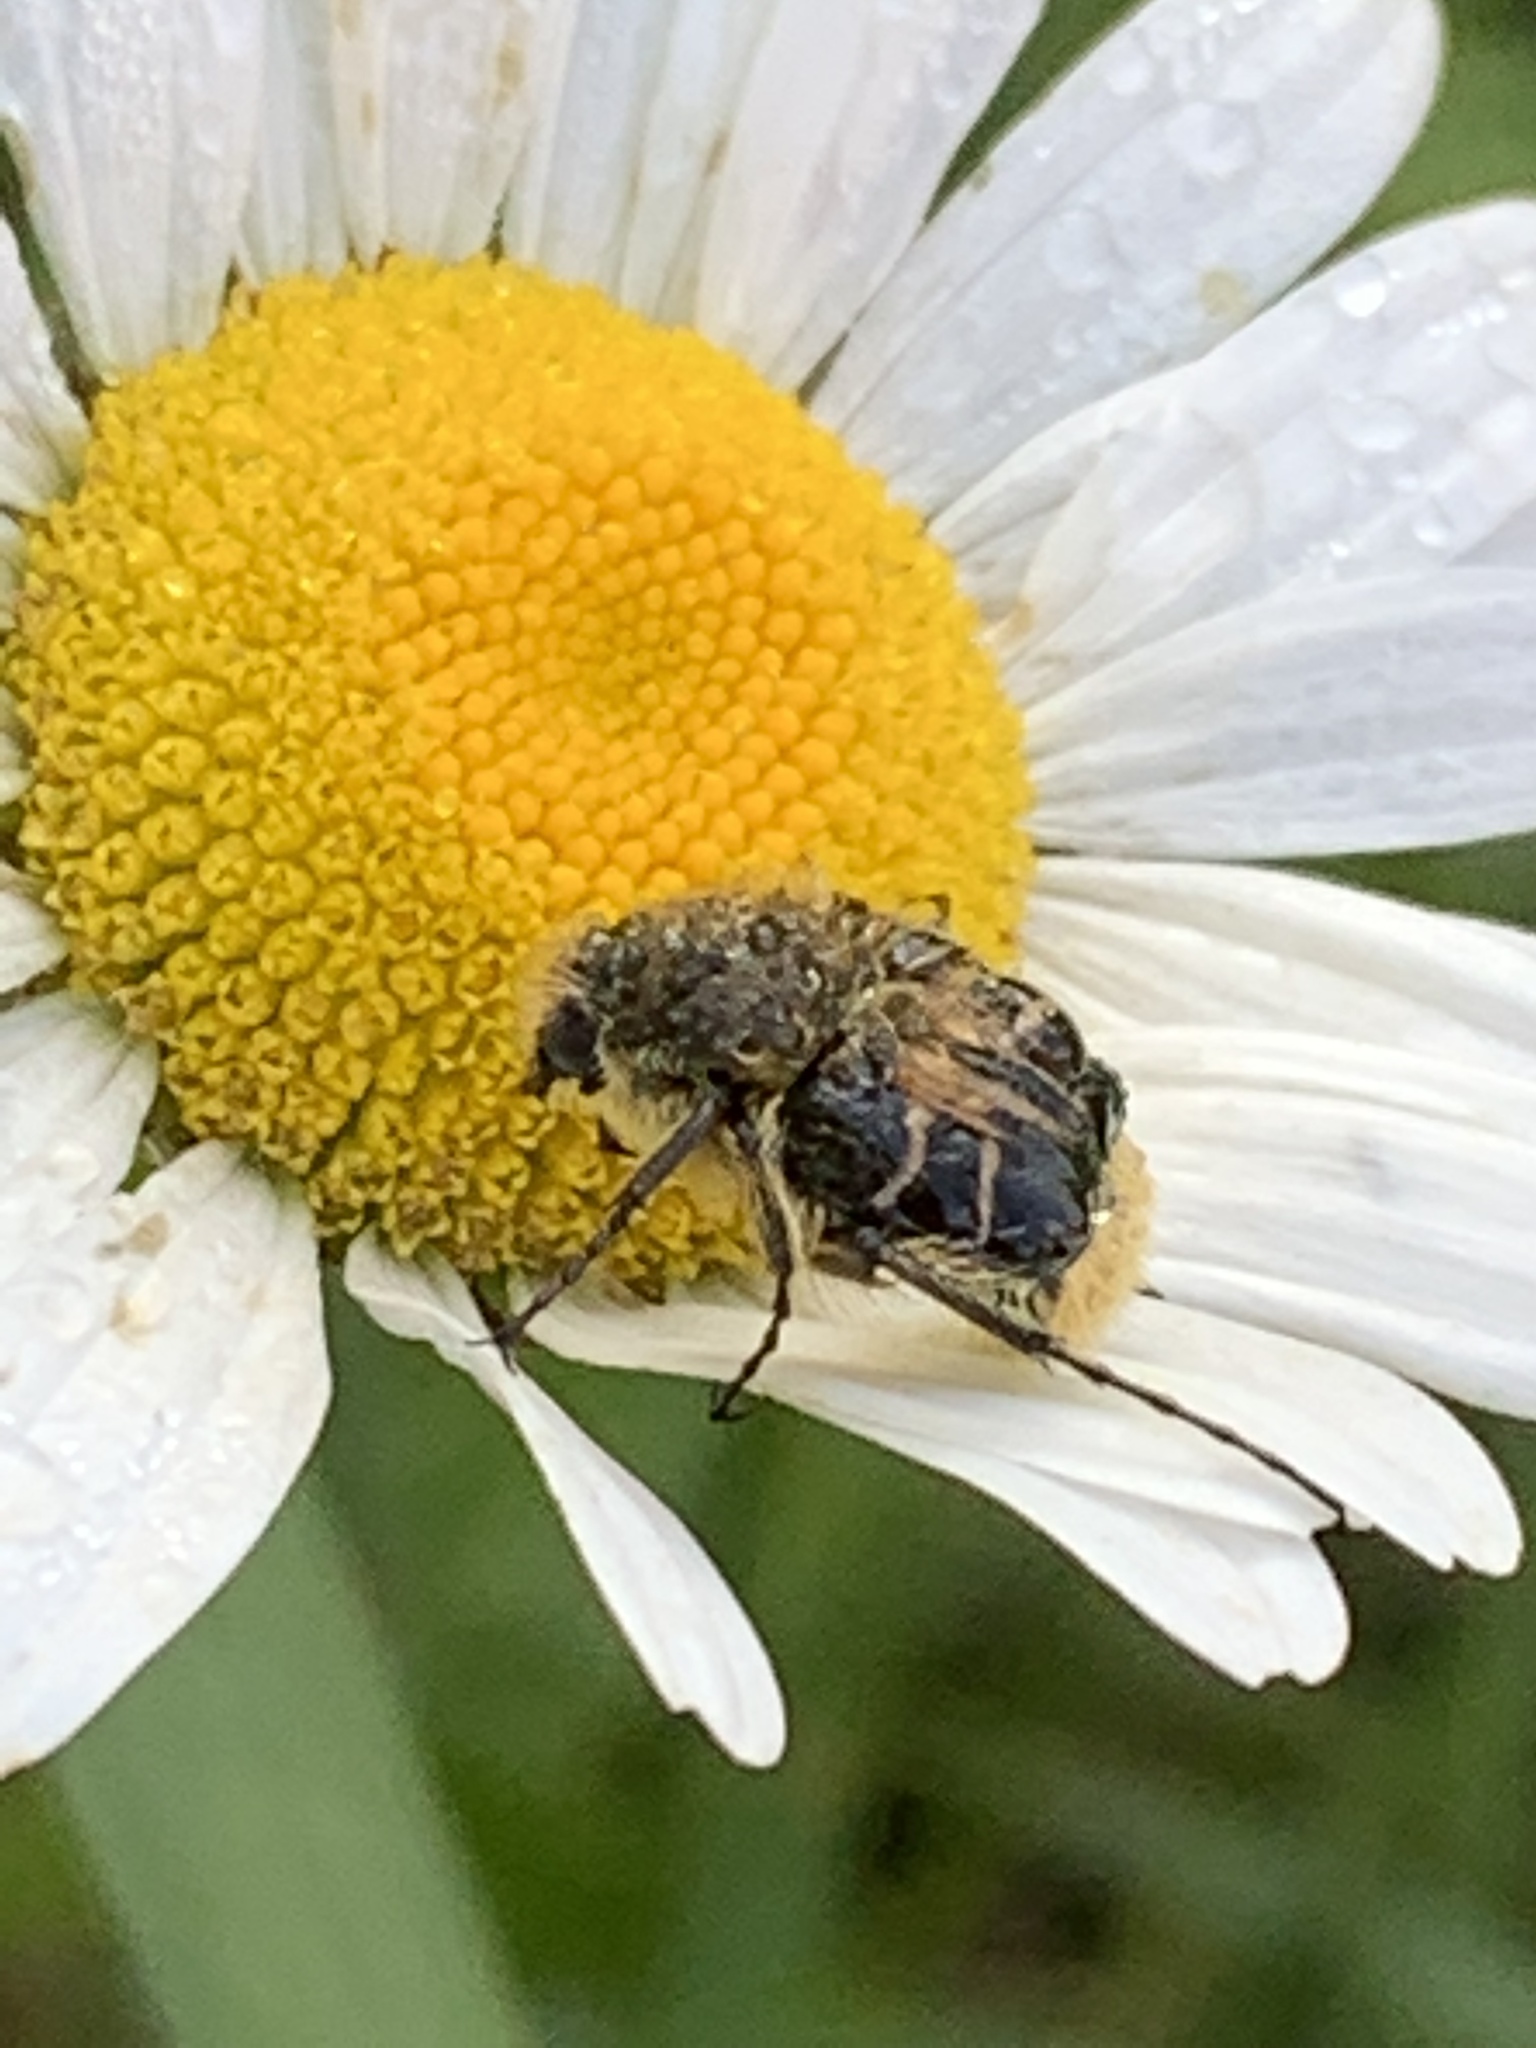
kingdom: Animalia
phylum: Arthropoda
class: Insecta
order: Coleoptera
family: Scarabaeidae
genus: Trichiotinus
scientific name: Trichiotinus assimilis
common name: Bee-mimic beetle
